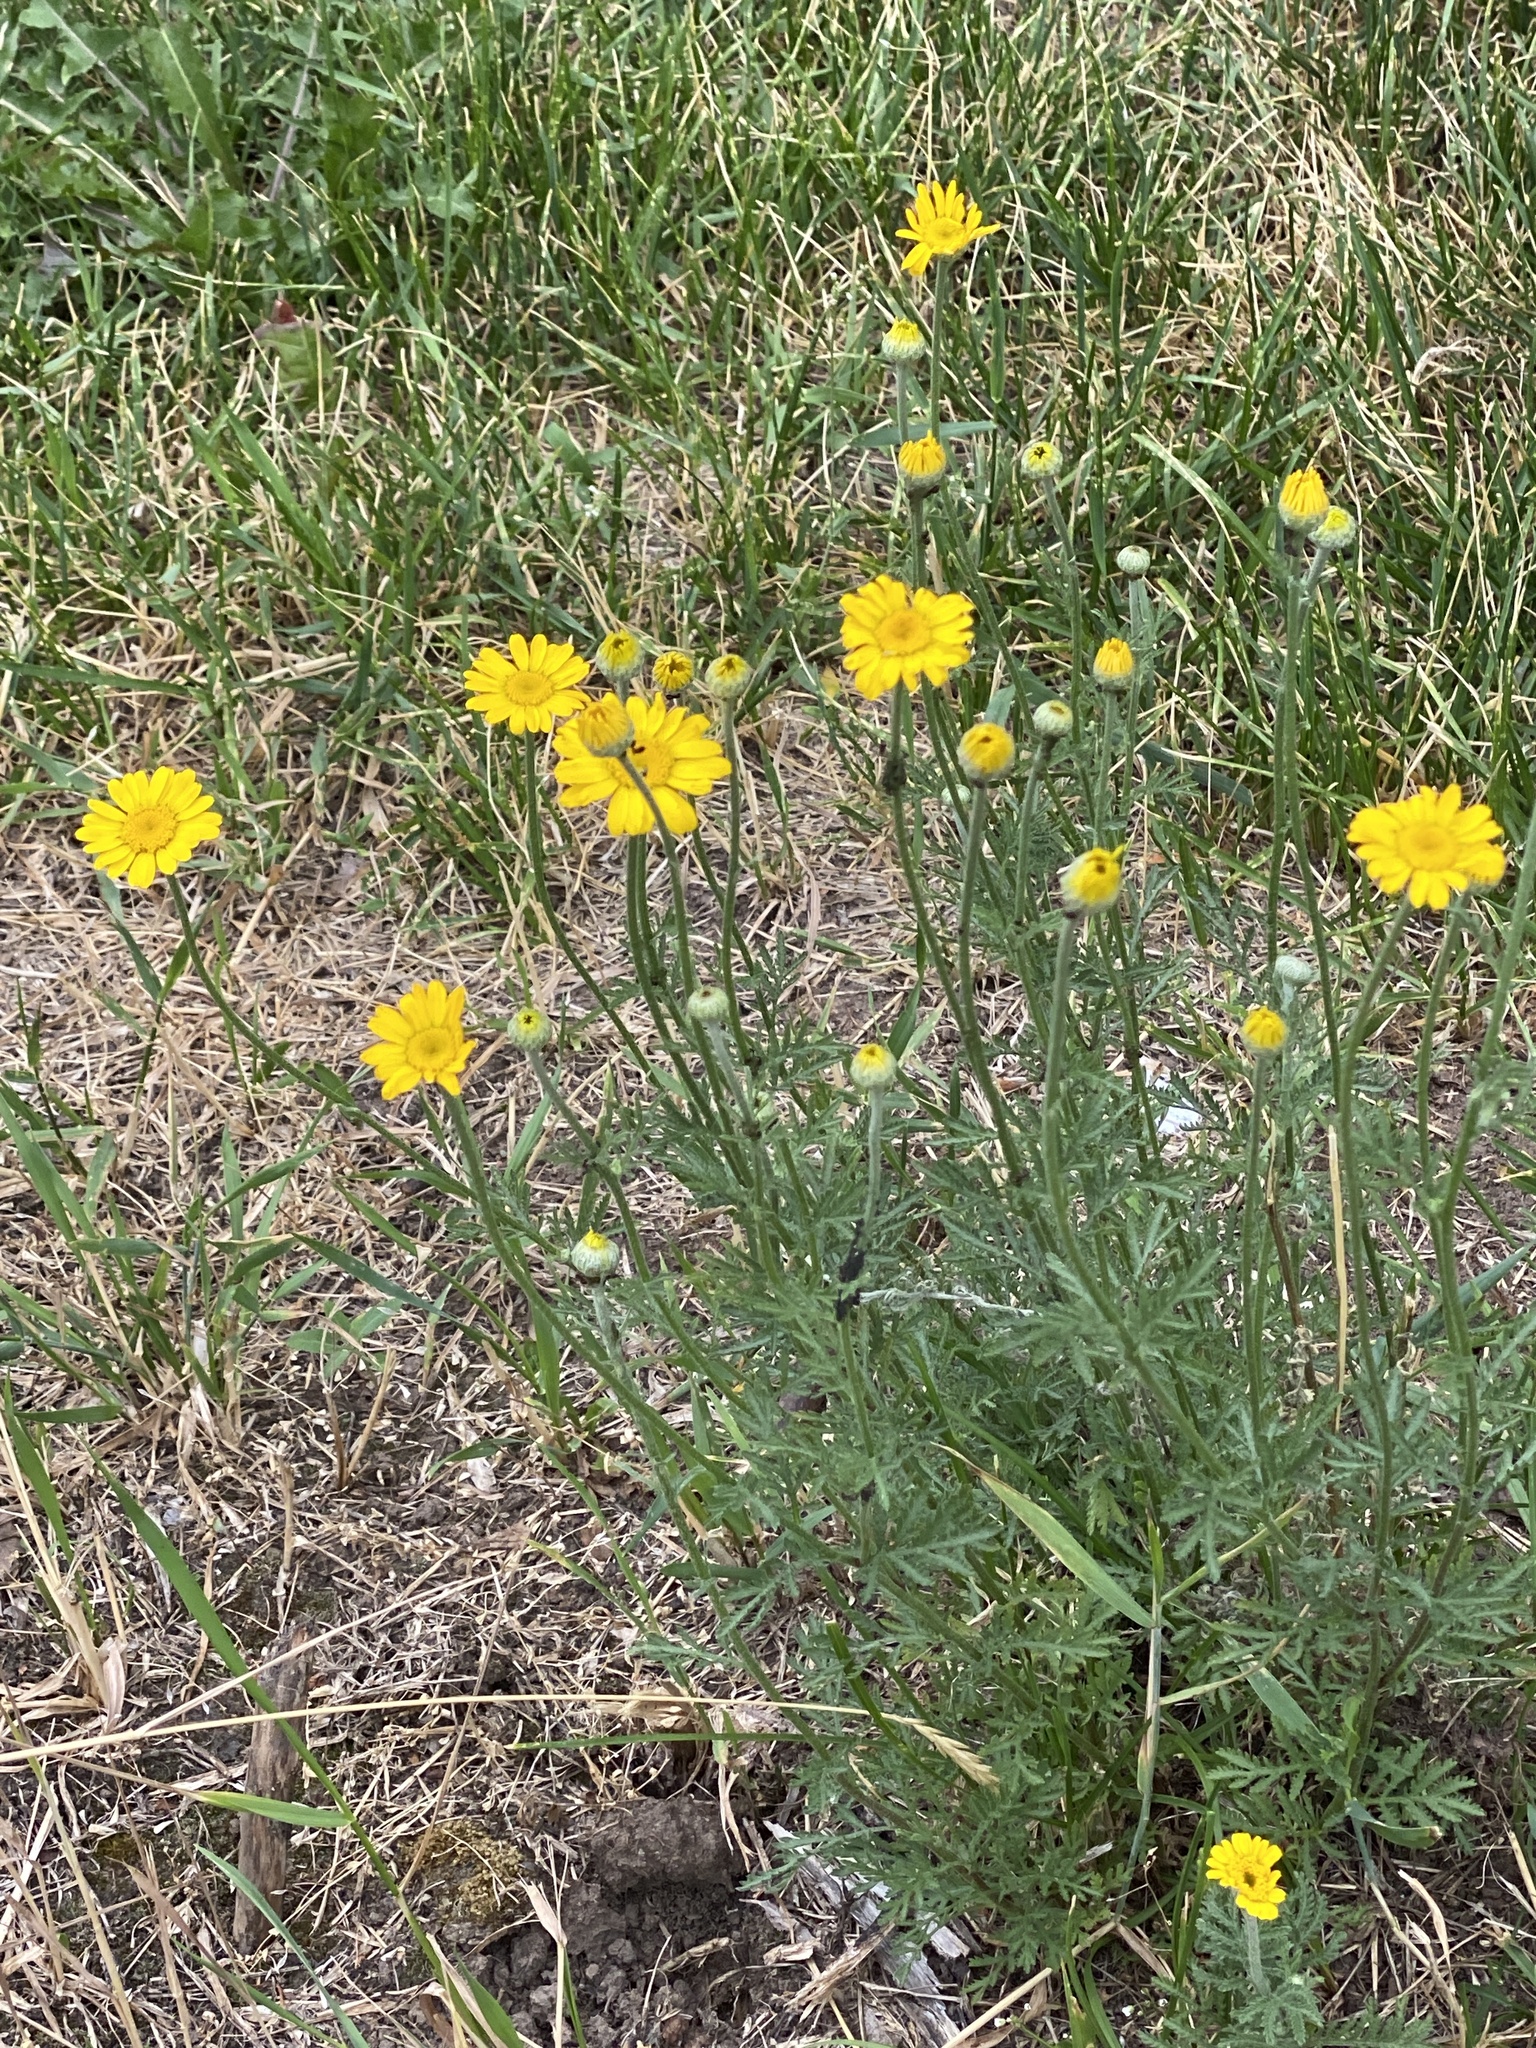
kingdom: Plantae
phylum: Tracheophyta
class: Magnoliopsida
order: Asterales
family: Asteraceae
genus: Cota
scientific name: Cota tinctoria
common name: Golden chamomile
